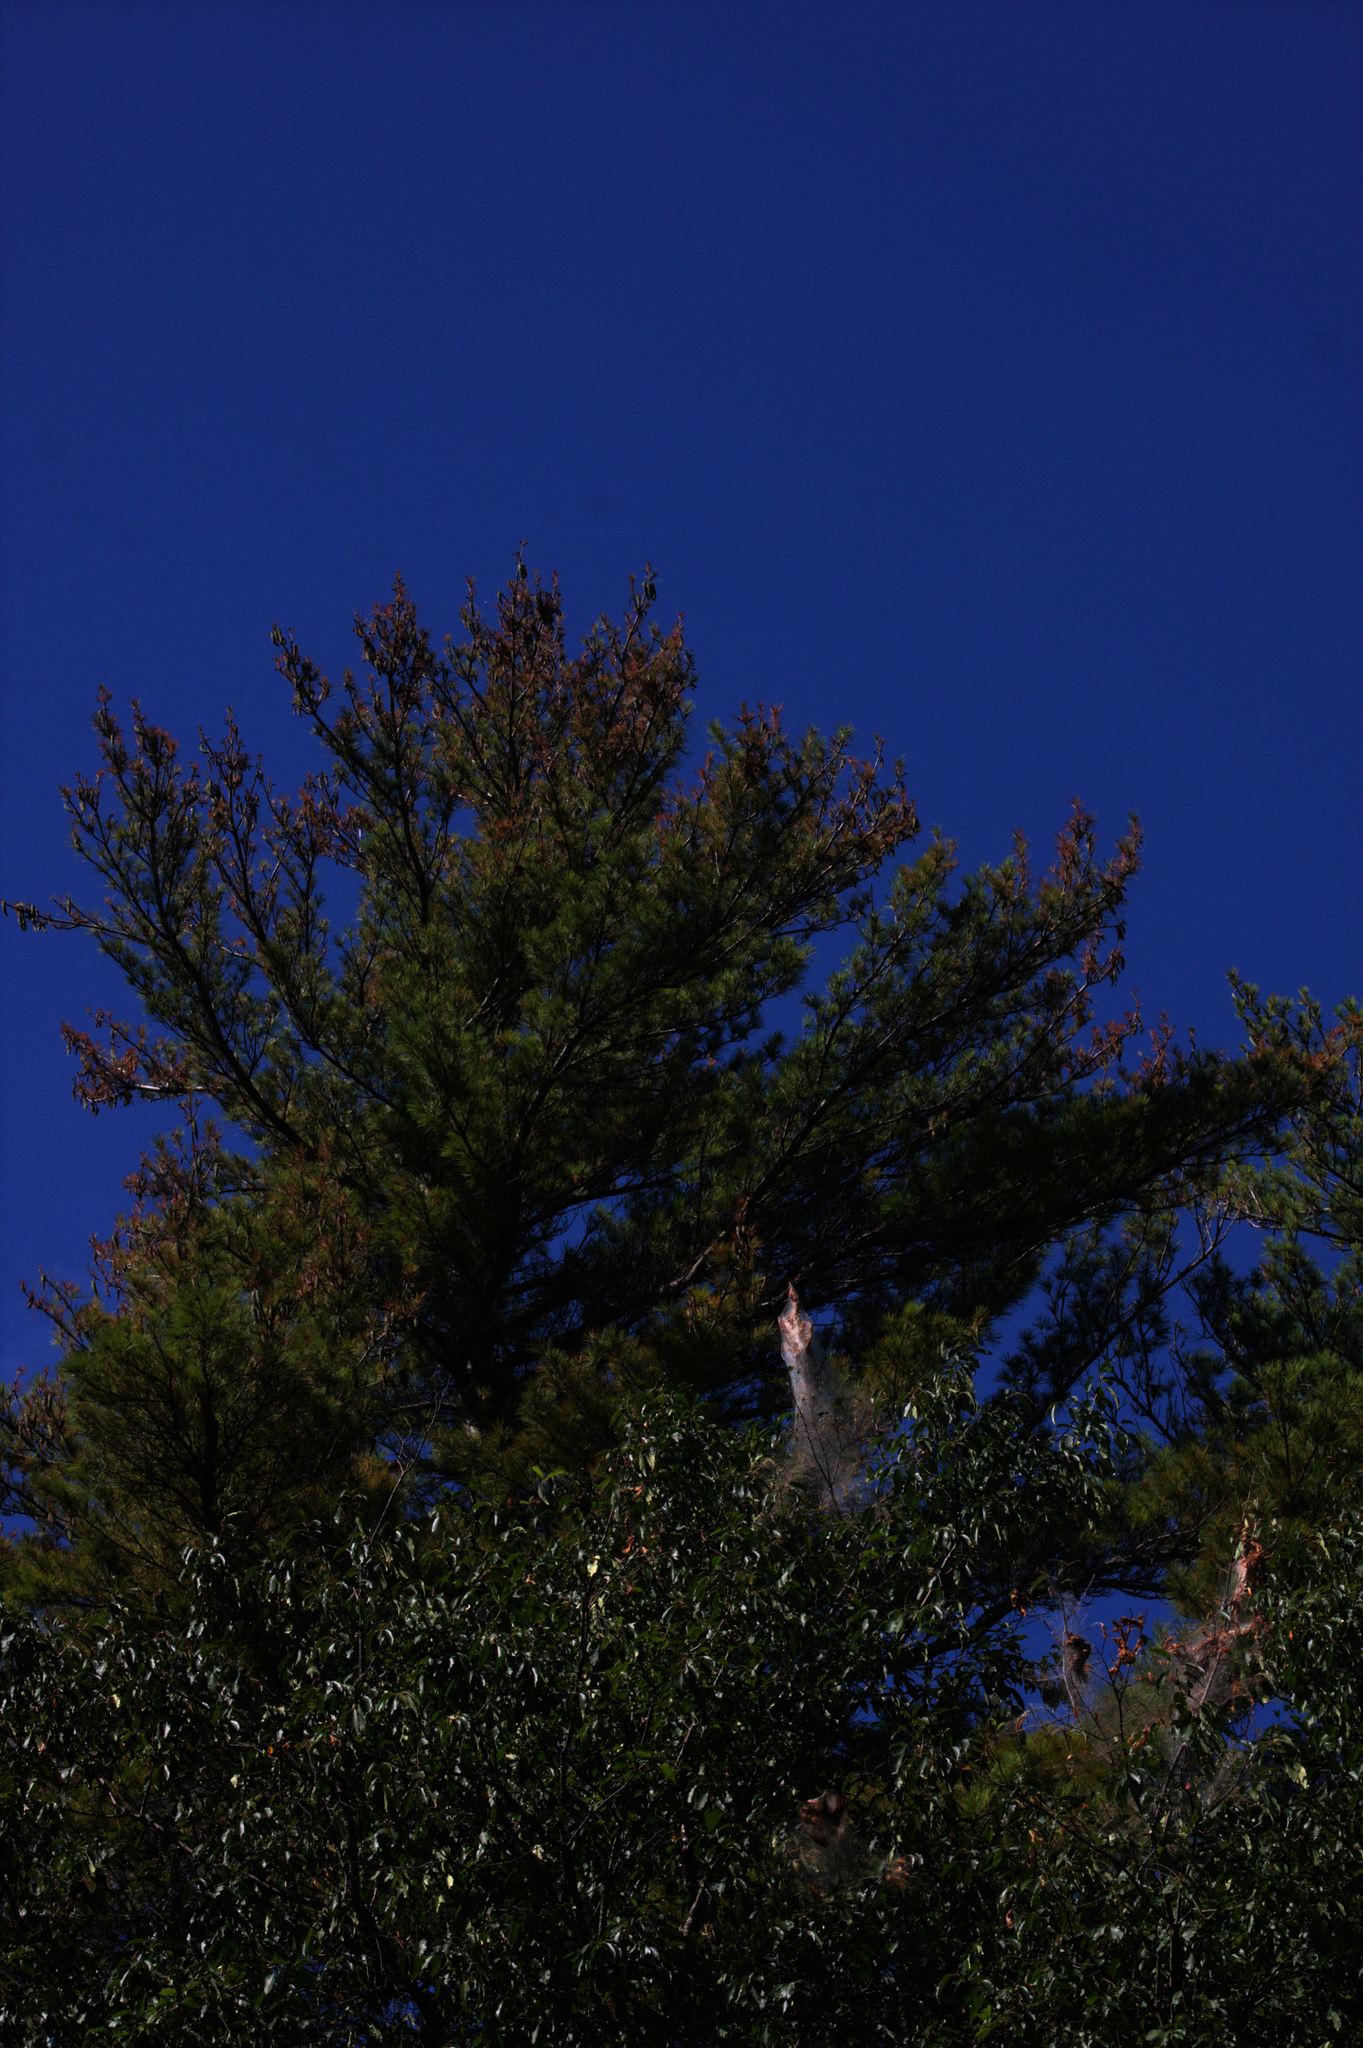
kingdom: Plantae
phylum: Tracheophyta
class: Pinopsida
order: Pinales
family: Pinaceae
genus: Pinus
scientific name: Pinus strobus
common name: Weymouth pine
